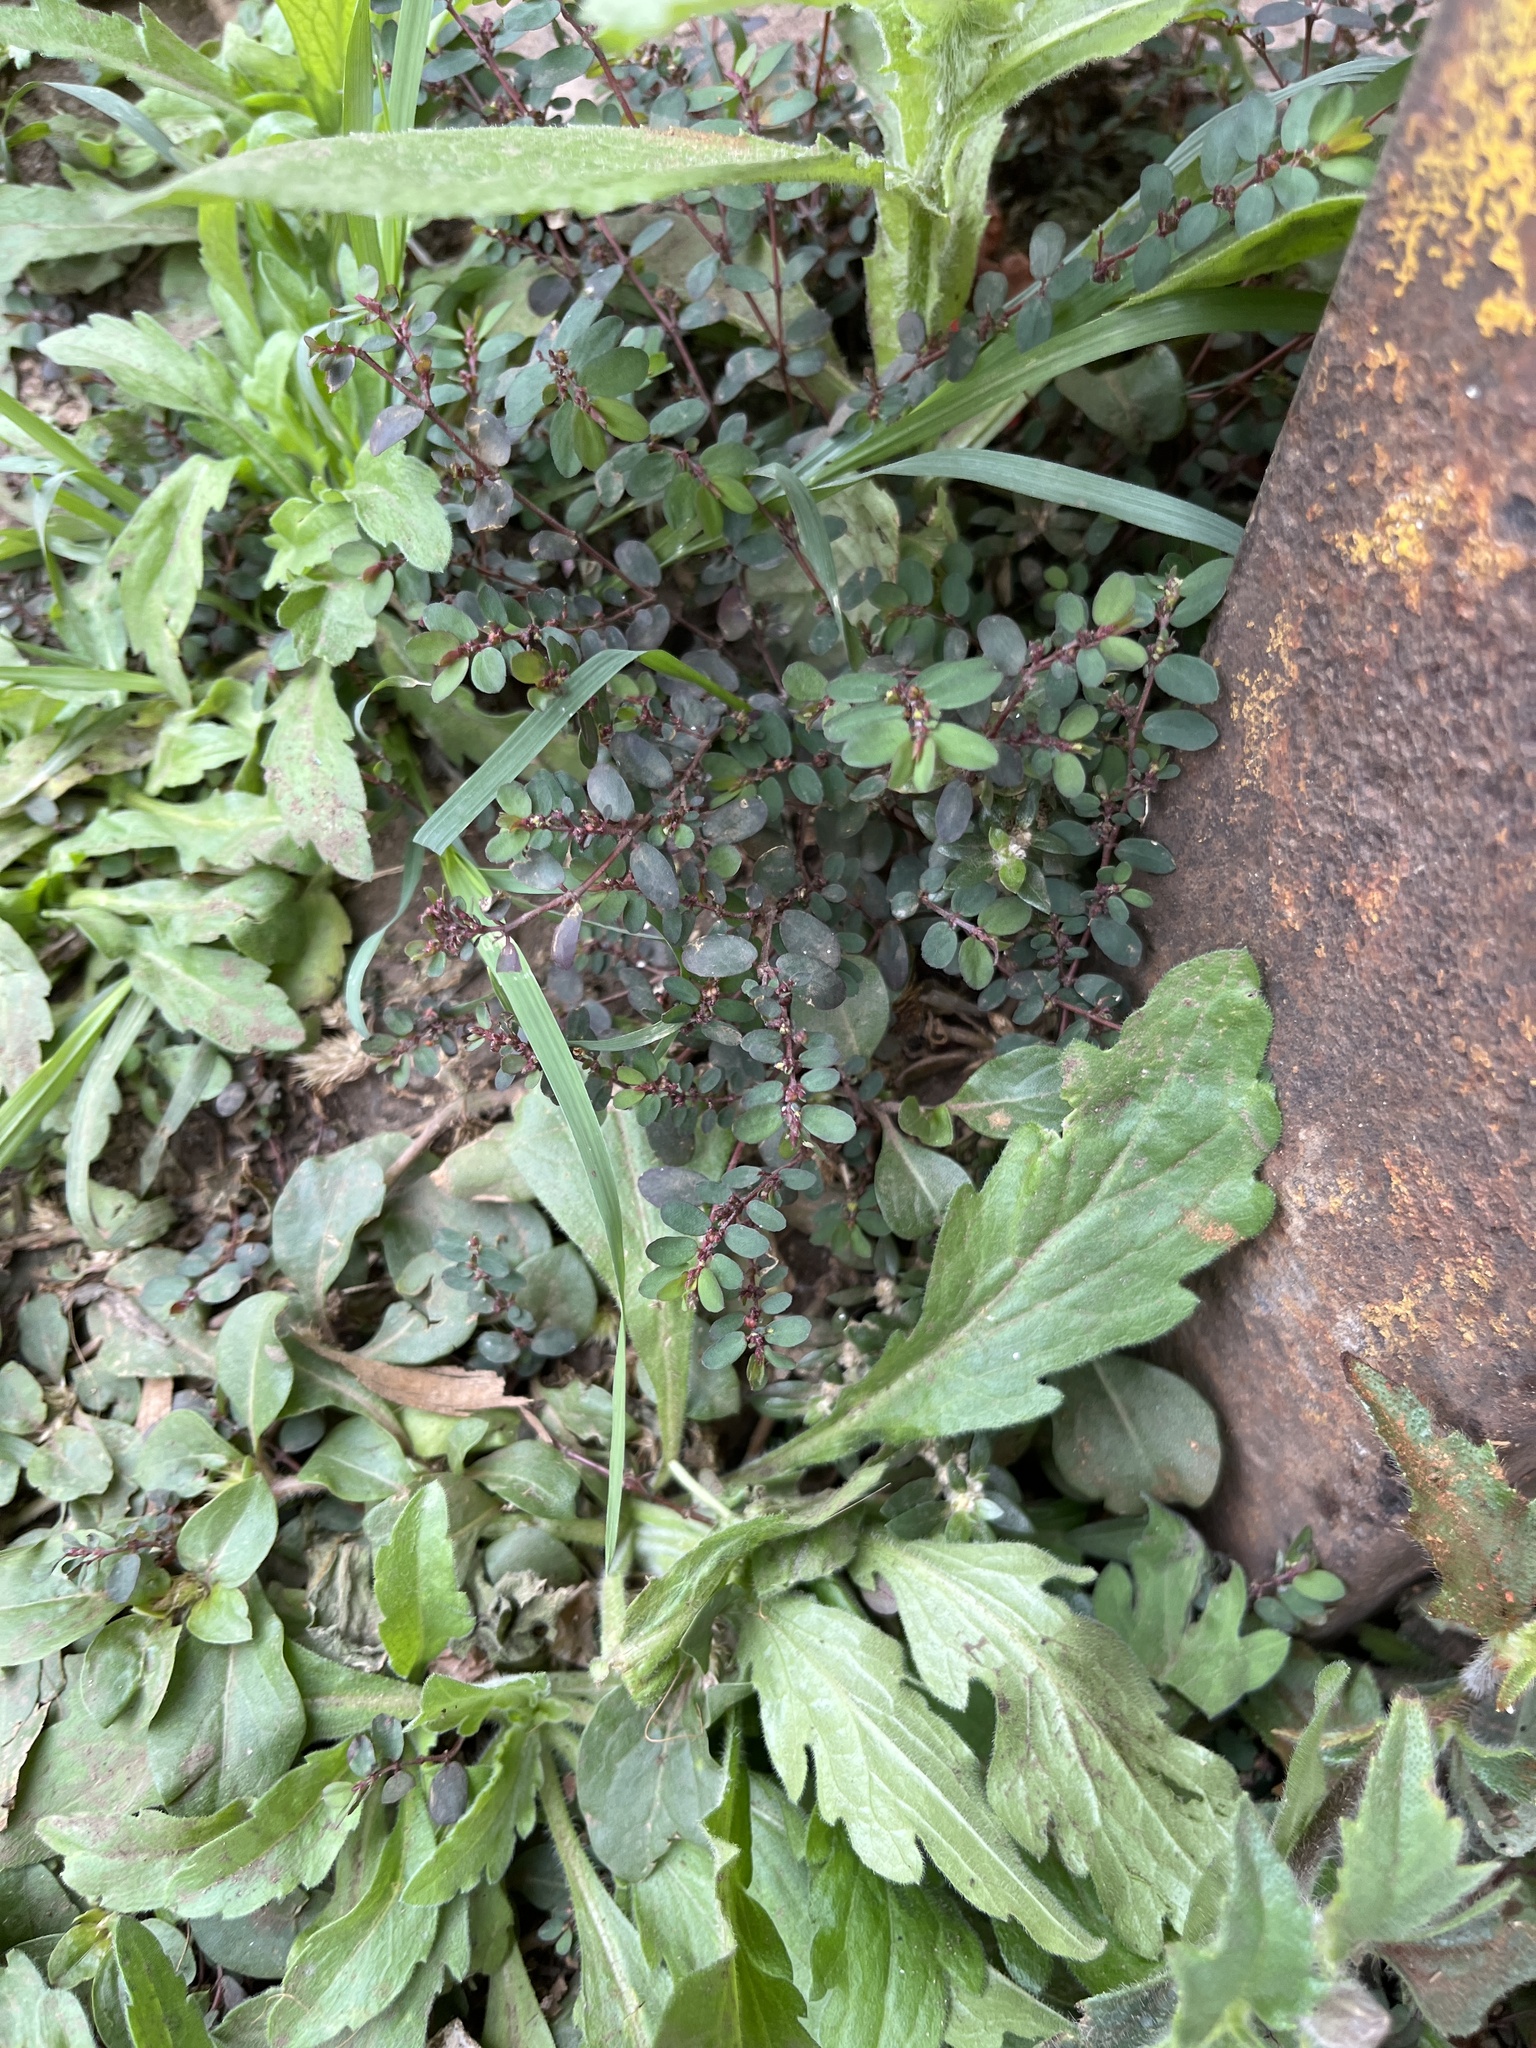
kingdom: Plantae
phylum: Tracheophyta
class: Magnoliopsida
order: Malpighiales
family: Euphorbiaceae
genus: Euphorbia
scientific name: Euphorbia prostrata
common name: Prostrate sandmat
